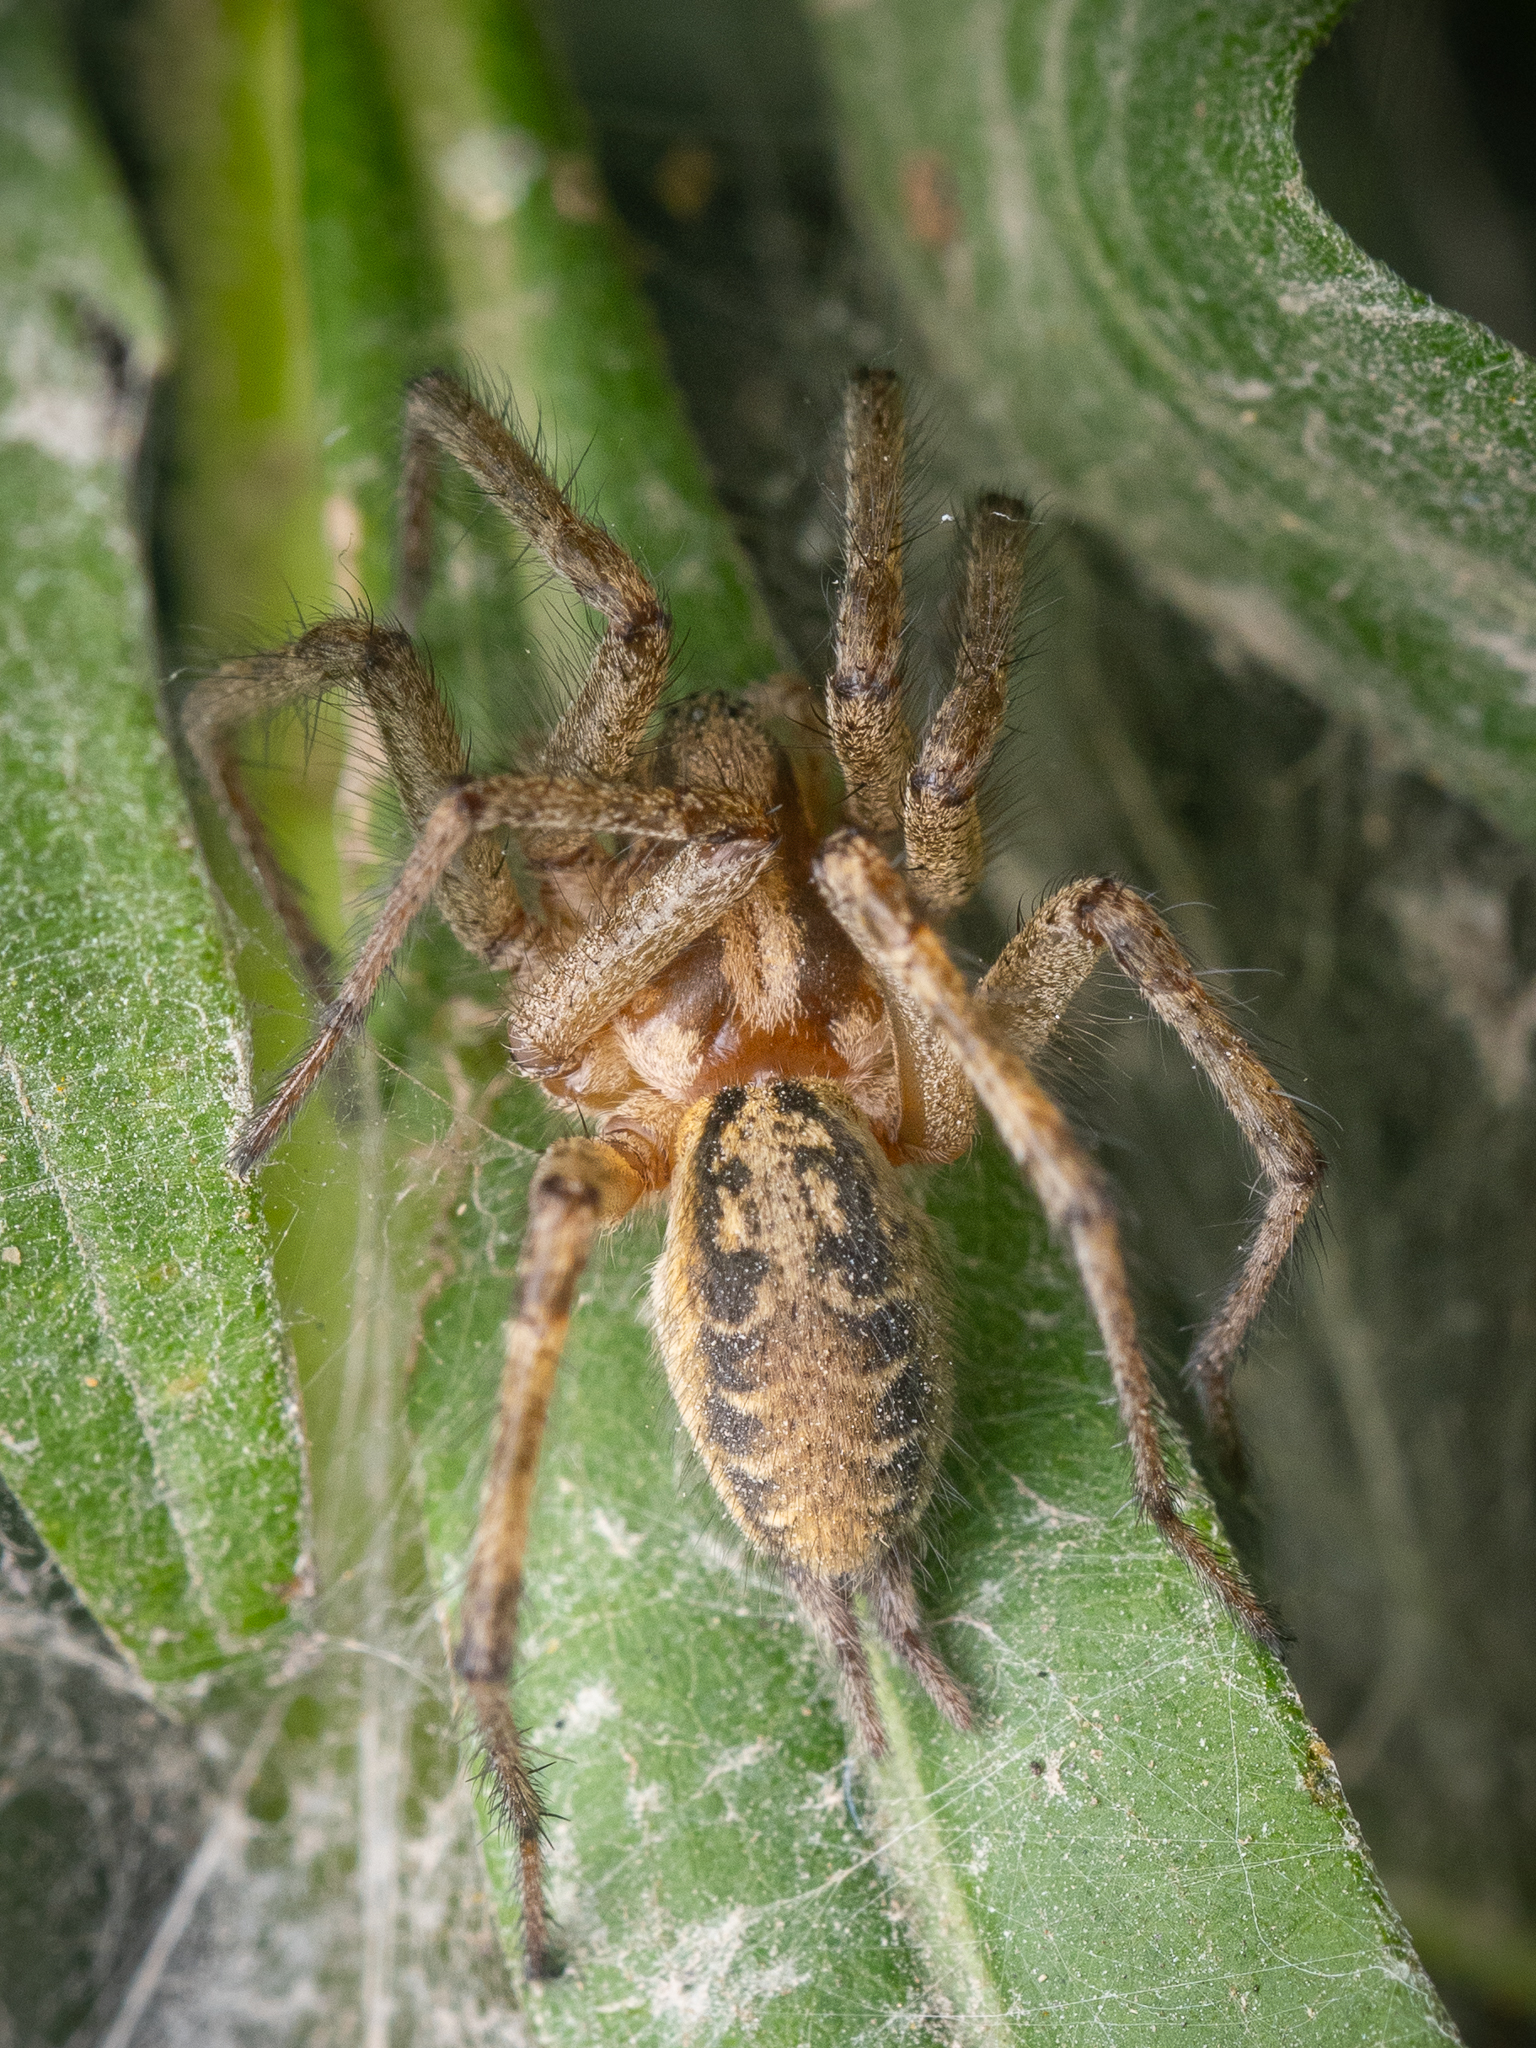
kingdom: Animalia
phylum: Arthropoda
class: Arachnida
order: Araneae
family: Agelenidae
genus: Agelena
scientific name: Agelena labyrinthica
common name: Labyrinth spider
